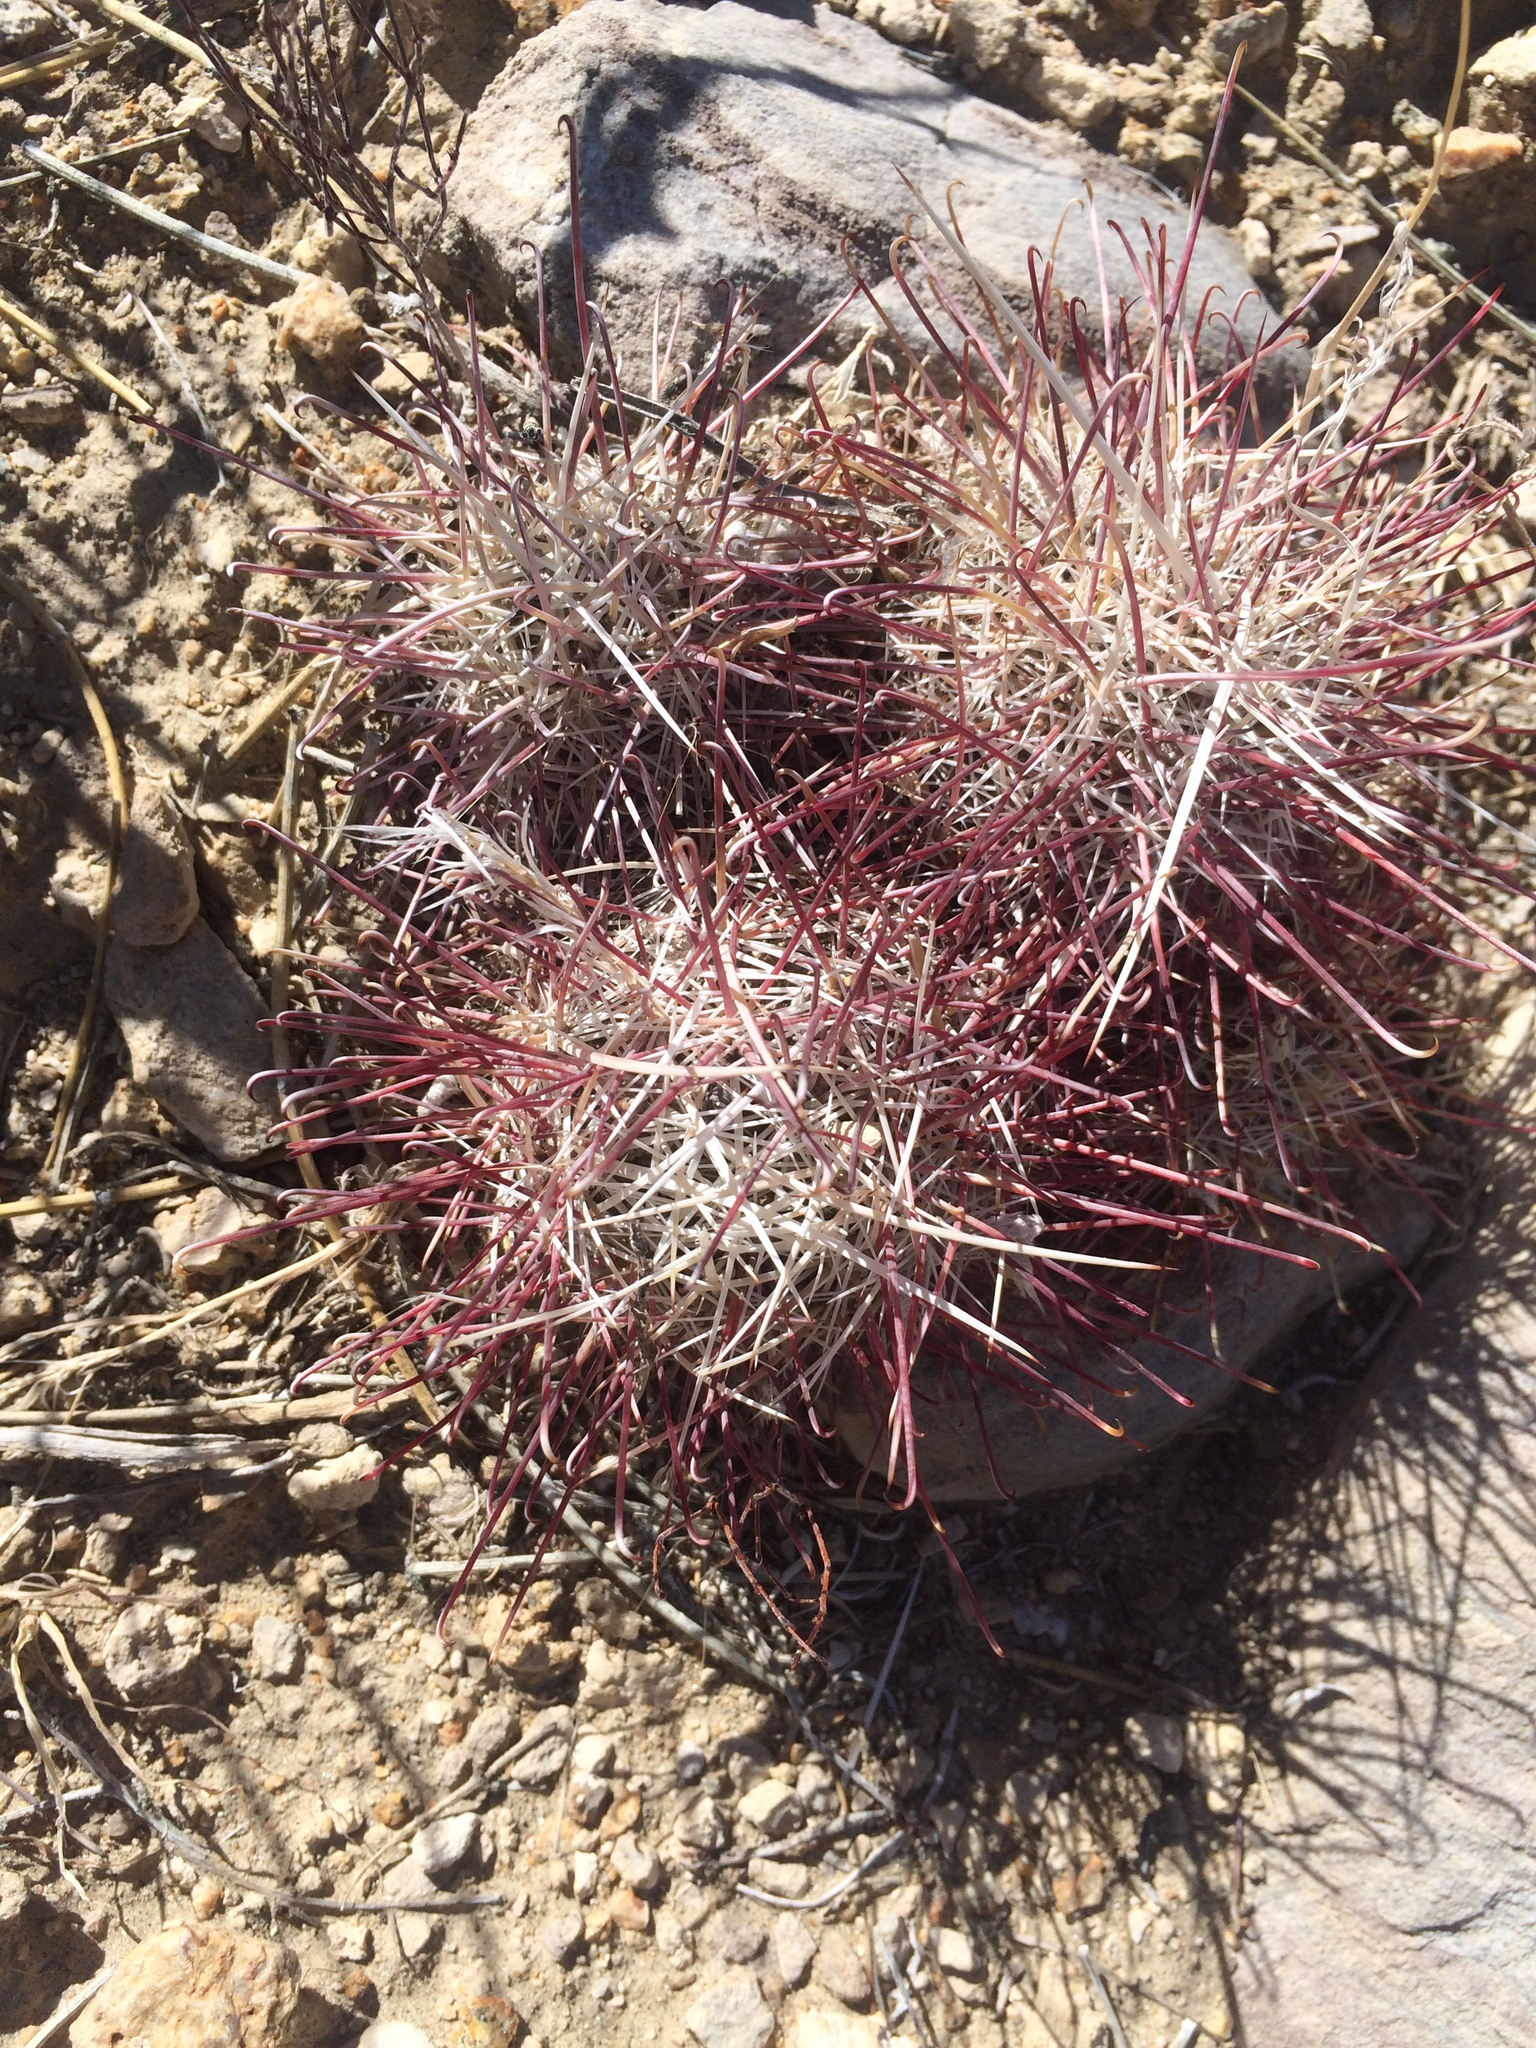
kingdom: Plantae
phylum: Tracheophyta
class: Magnoliopsida
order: Caryophyllales
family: Cactaceae
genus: Sclerocactus
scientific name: Sclerocactus polyancistrus
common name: Mohave fishhook cactus
